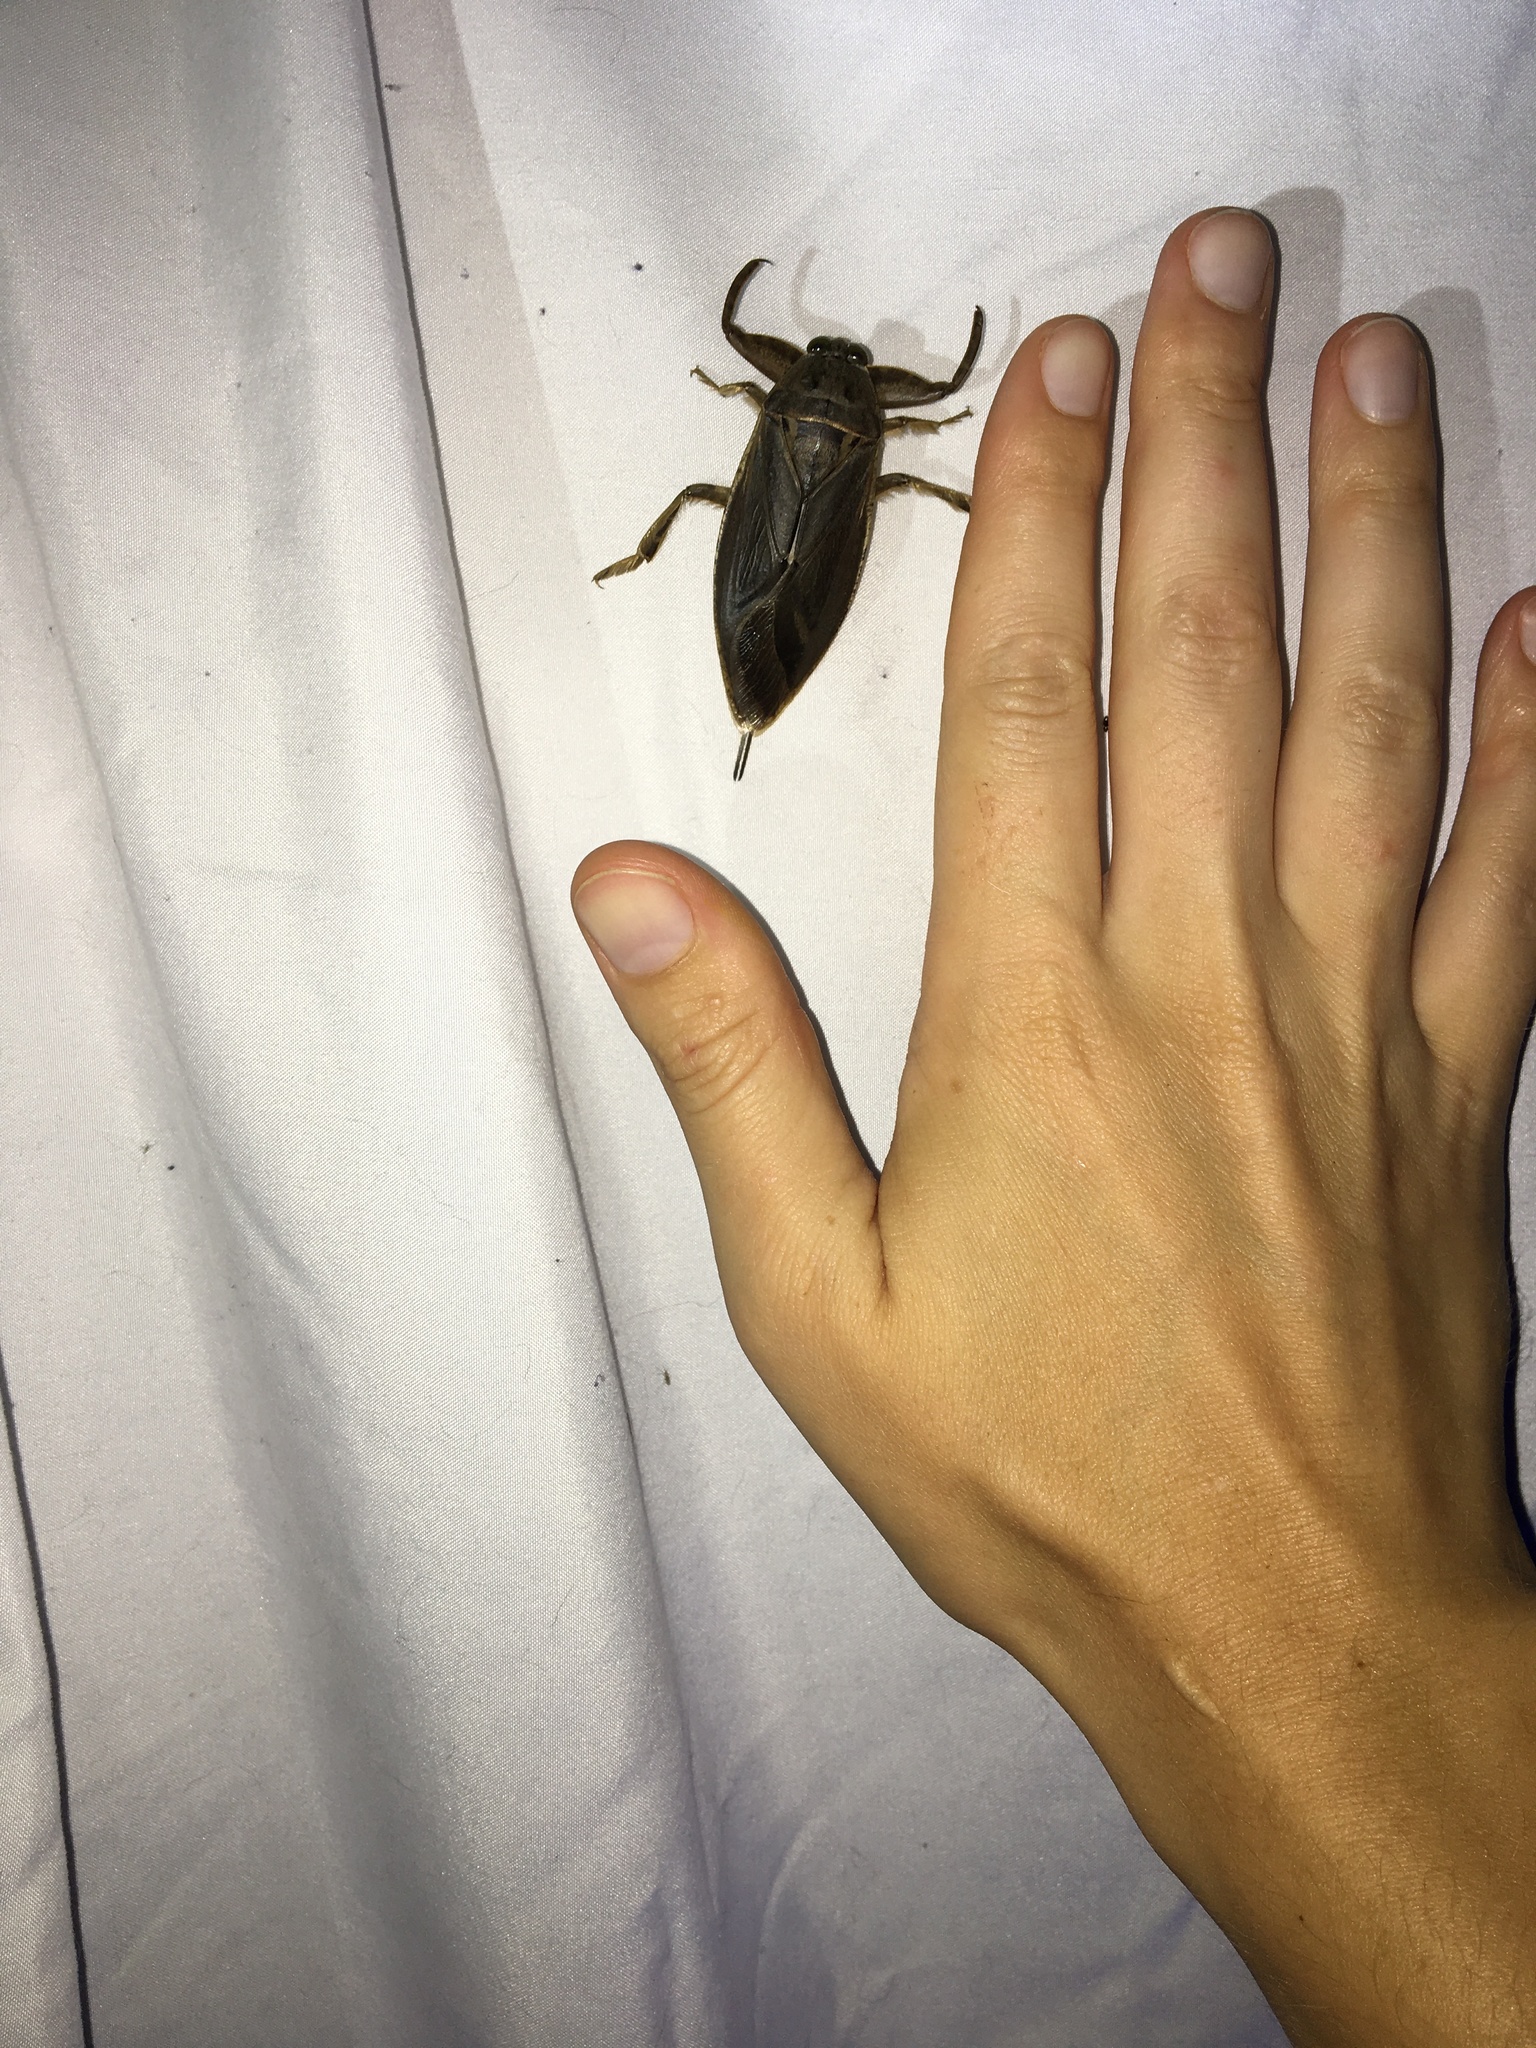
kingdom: Animalia
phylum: Arthropoda
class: Insecta
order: Hemiptera
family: Belostomatidae
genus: Lethocerus
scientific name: Lethocerus uhleri
